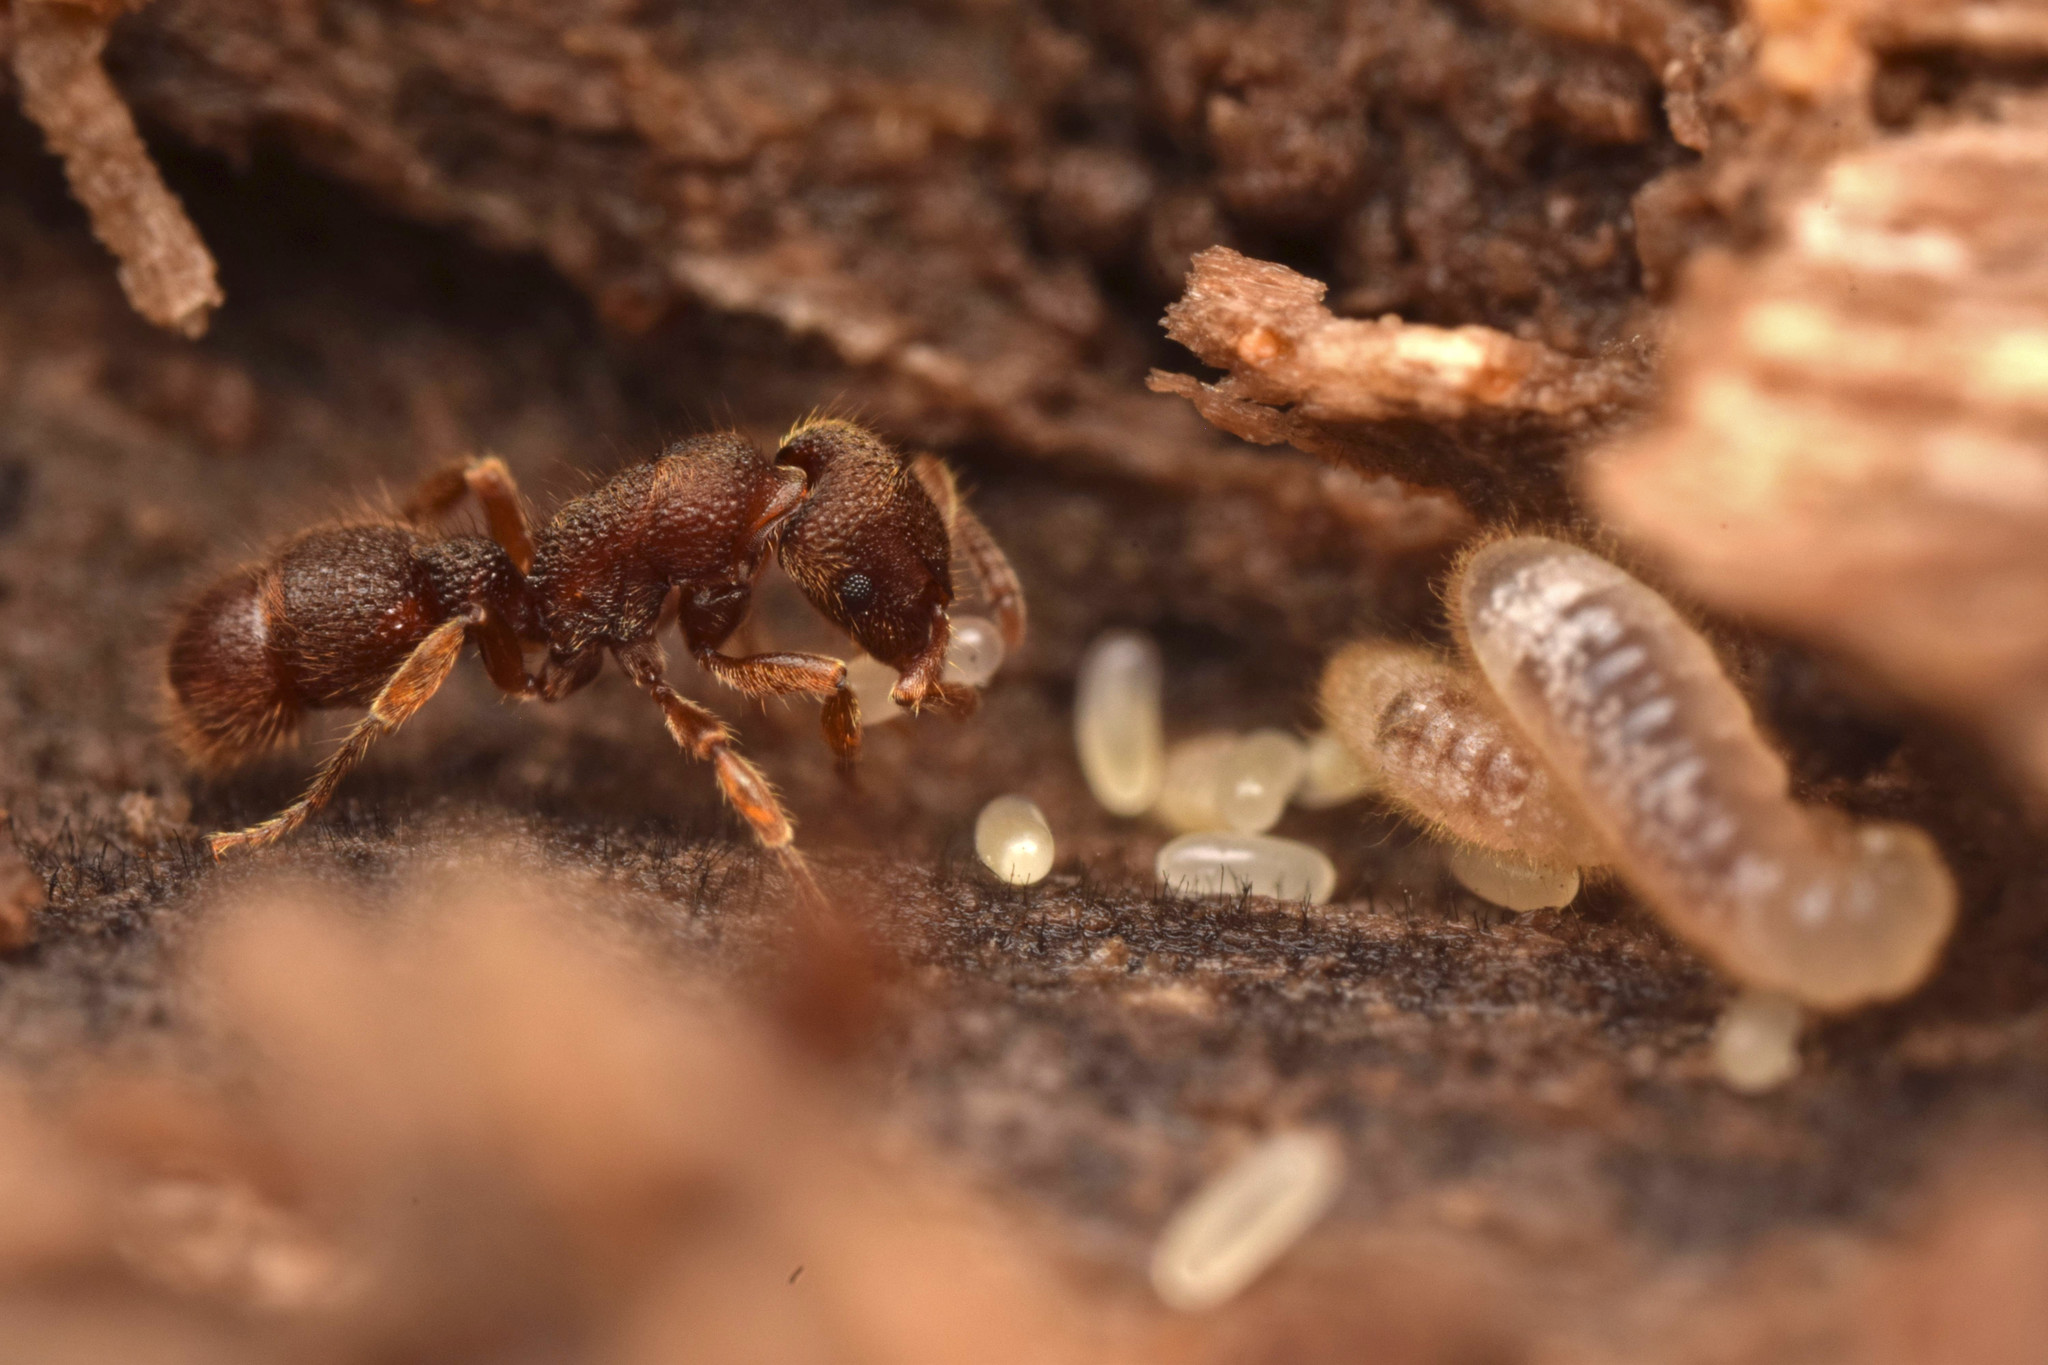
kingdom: Animalia
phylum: Arthropoda
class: Insecta
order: Hymenoptera
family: Formicidae
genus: Heteroponera
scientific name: Heteroponera mayri
